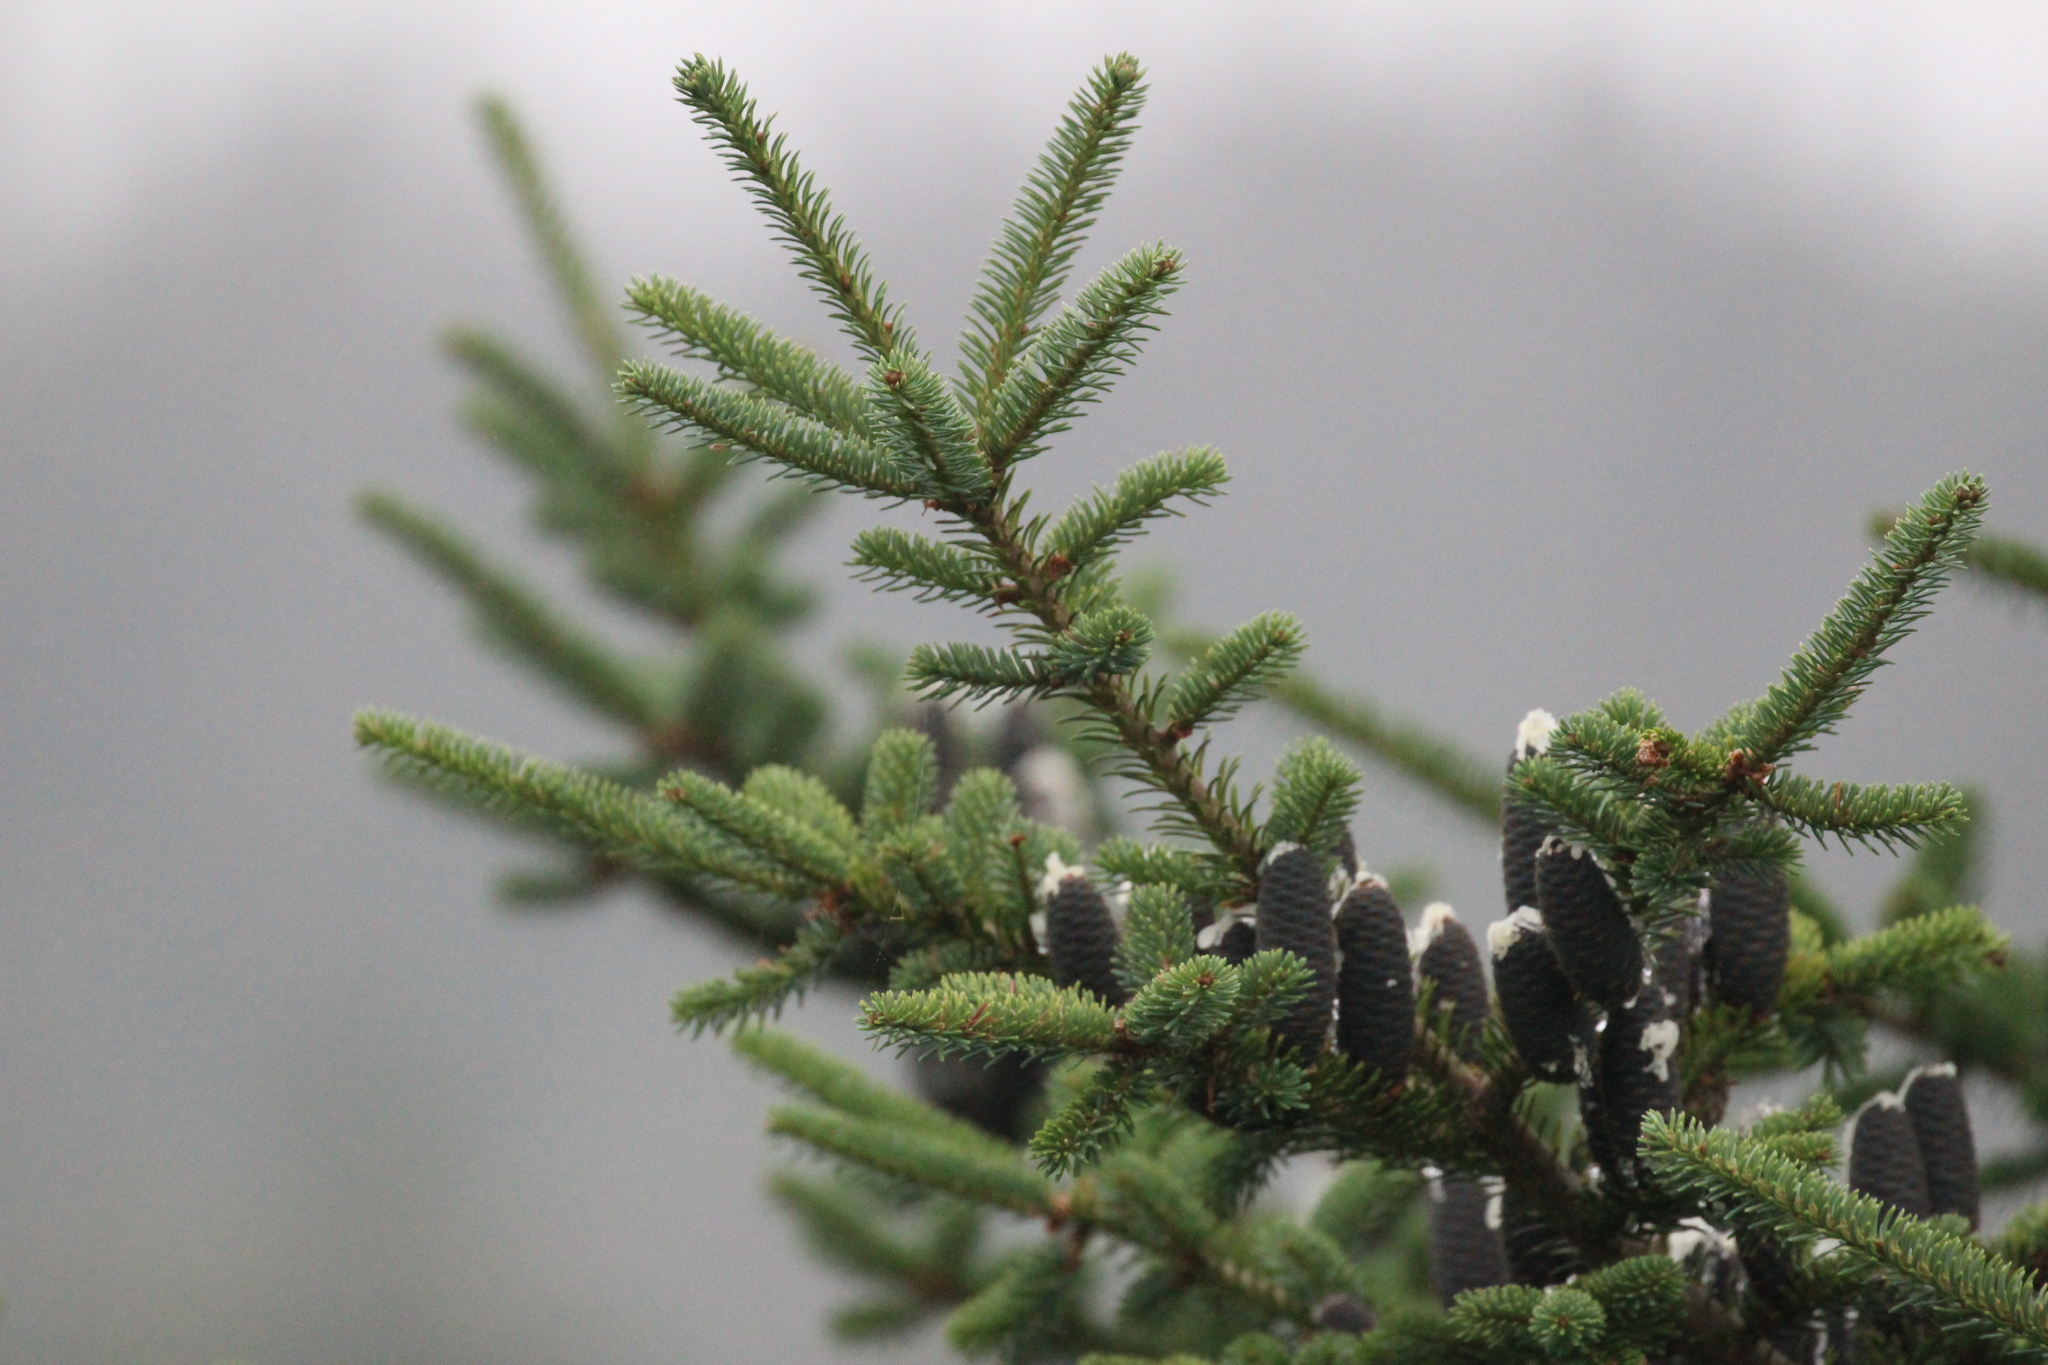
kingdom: Plantae
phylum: Tracheophyta
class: Pinopsida
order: Pinales
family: Pinaceae
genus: Abies
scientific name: Abies balsamea
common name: Balsam fir
